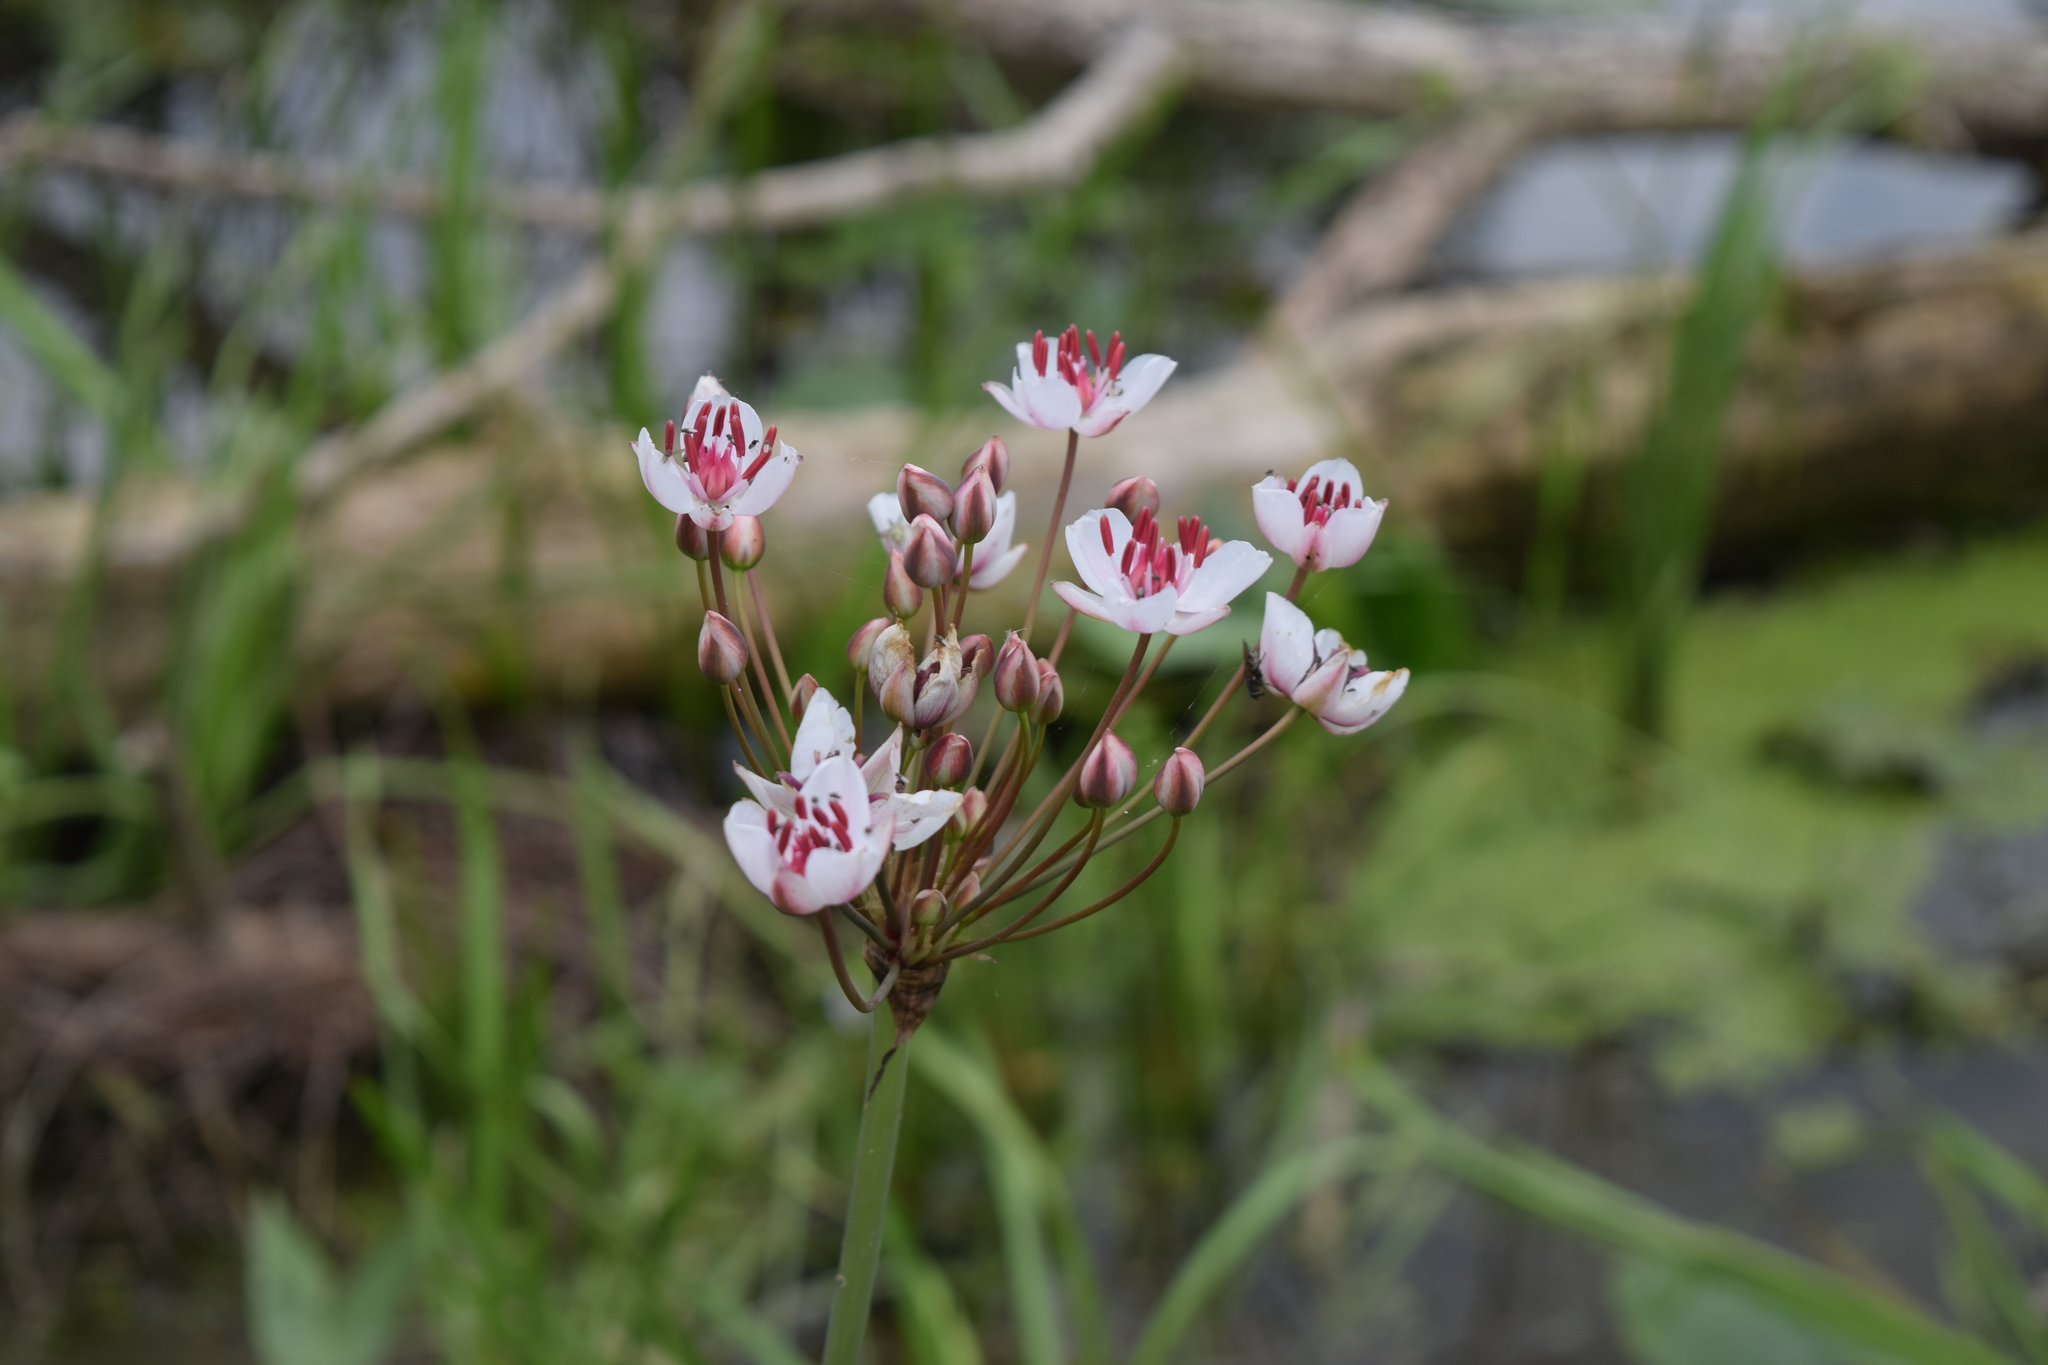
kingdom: Plantae
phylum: Tracheophyta
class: Liliopsida
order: Alismatales
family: Butomaceae
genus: Butomus
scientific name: Butomus umbellatus
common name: Flowering-rush
